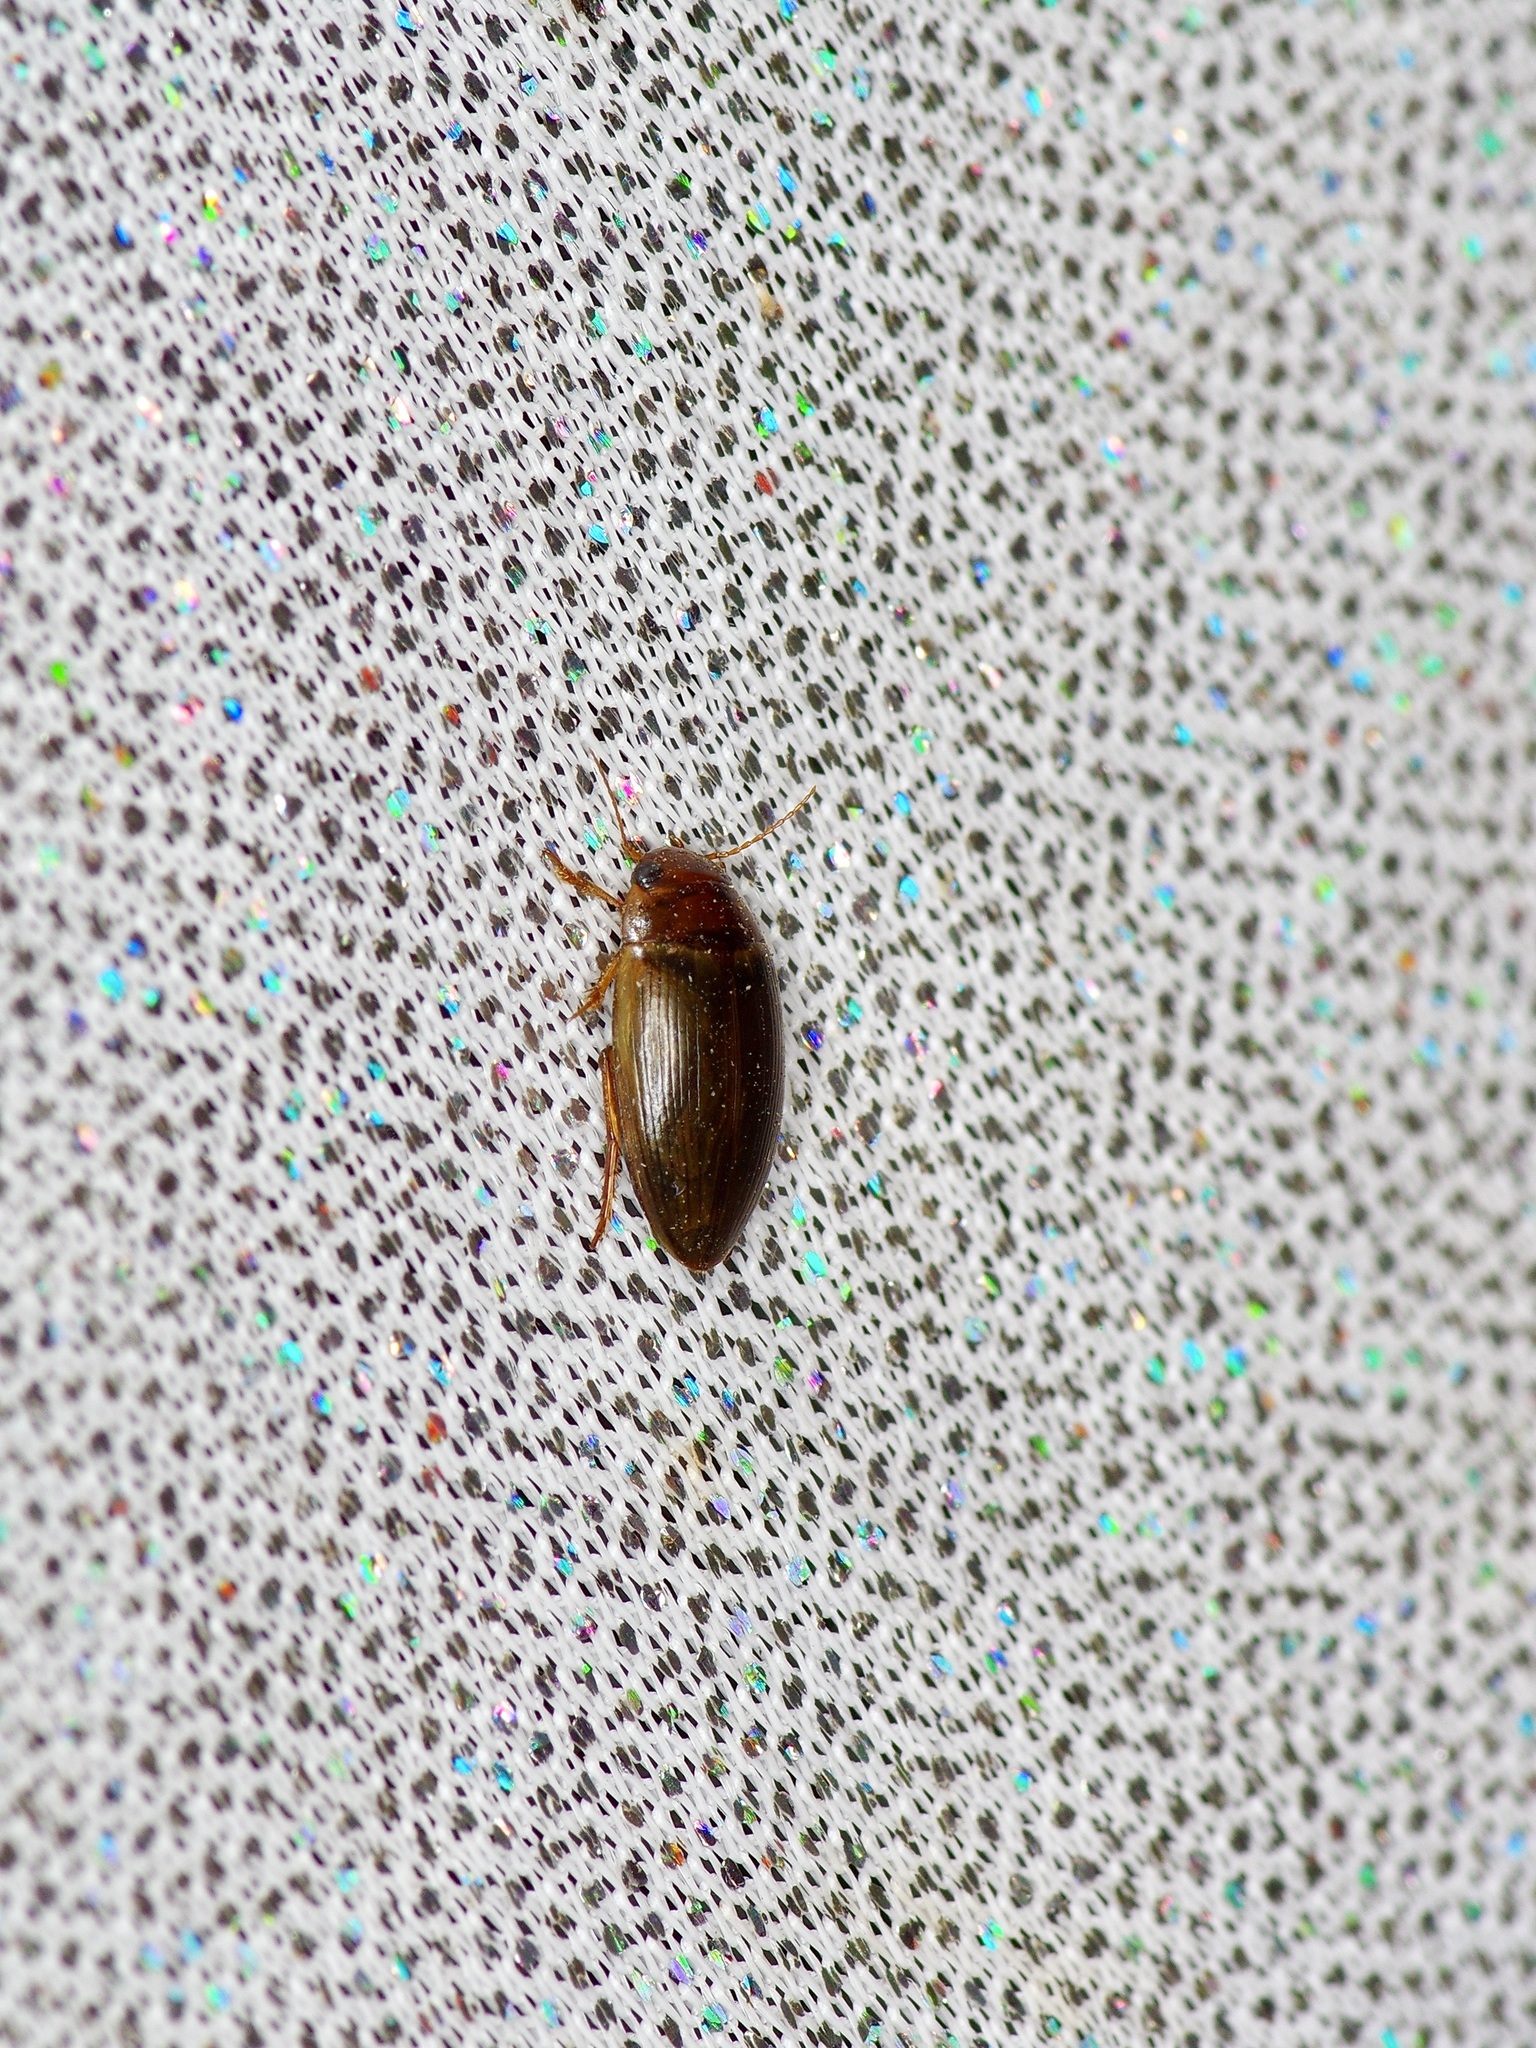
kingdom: Animalia
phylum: Arthropoda
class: Insecta
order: Coleoptera
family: Dytiscidae
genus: Copelatus
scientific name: Copelatus chevrolati
